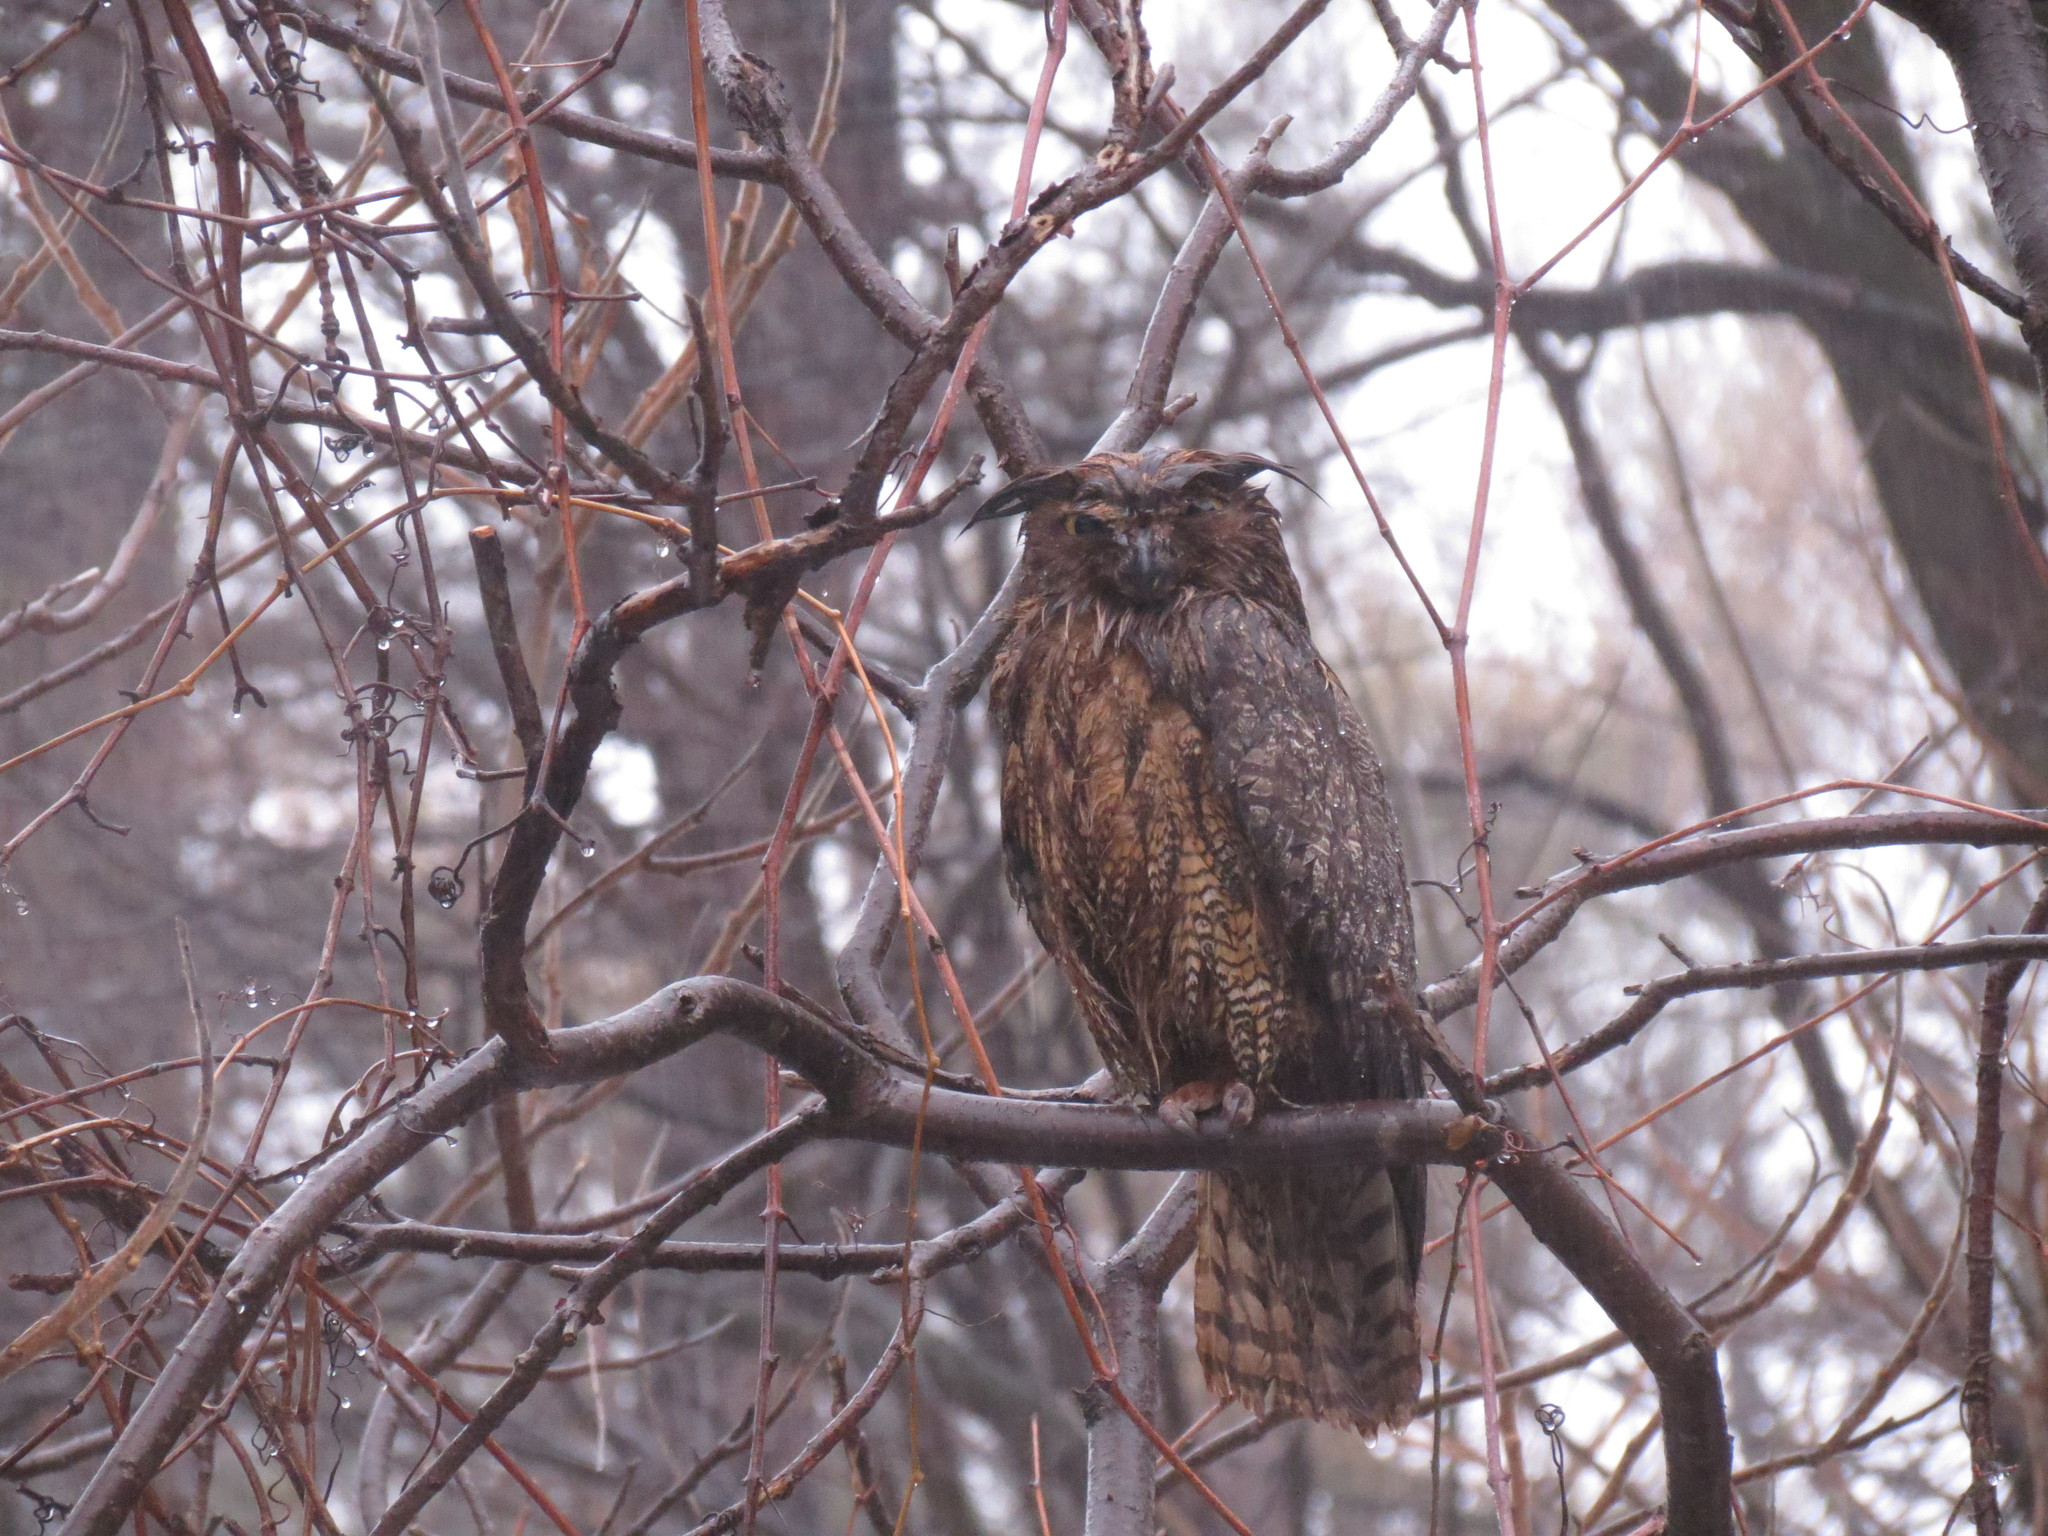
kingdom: Animalia
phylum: Chordata
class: Aves
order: Strigiformes
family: Strigidae
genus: Bubo
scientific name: Bubo virginianus
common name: Great horned owl
